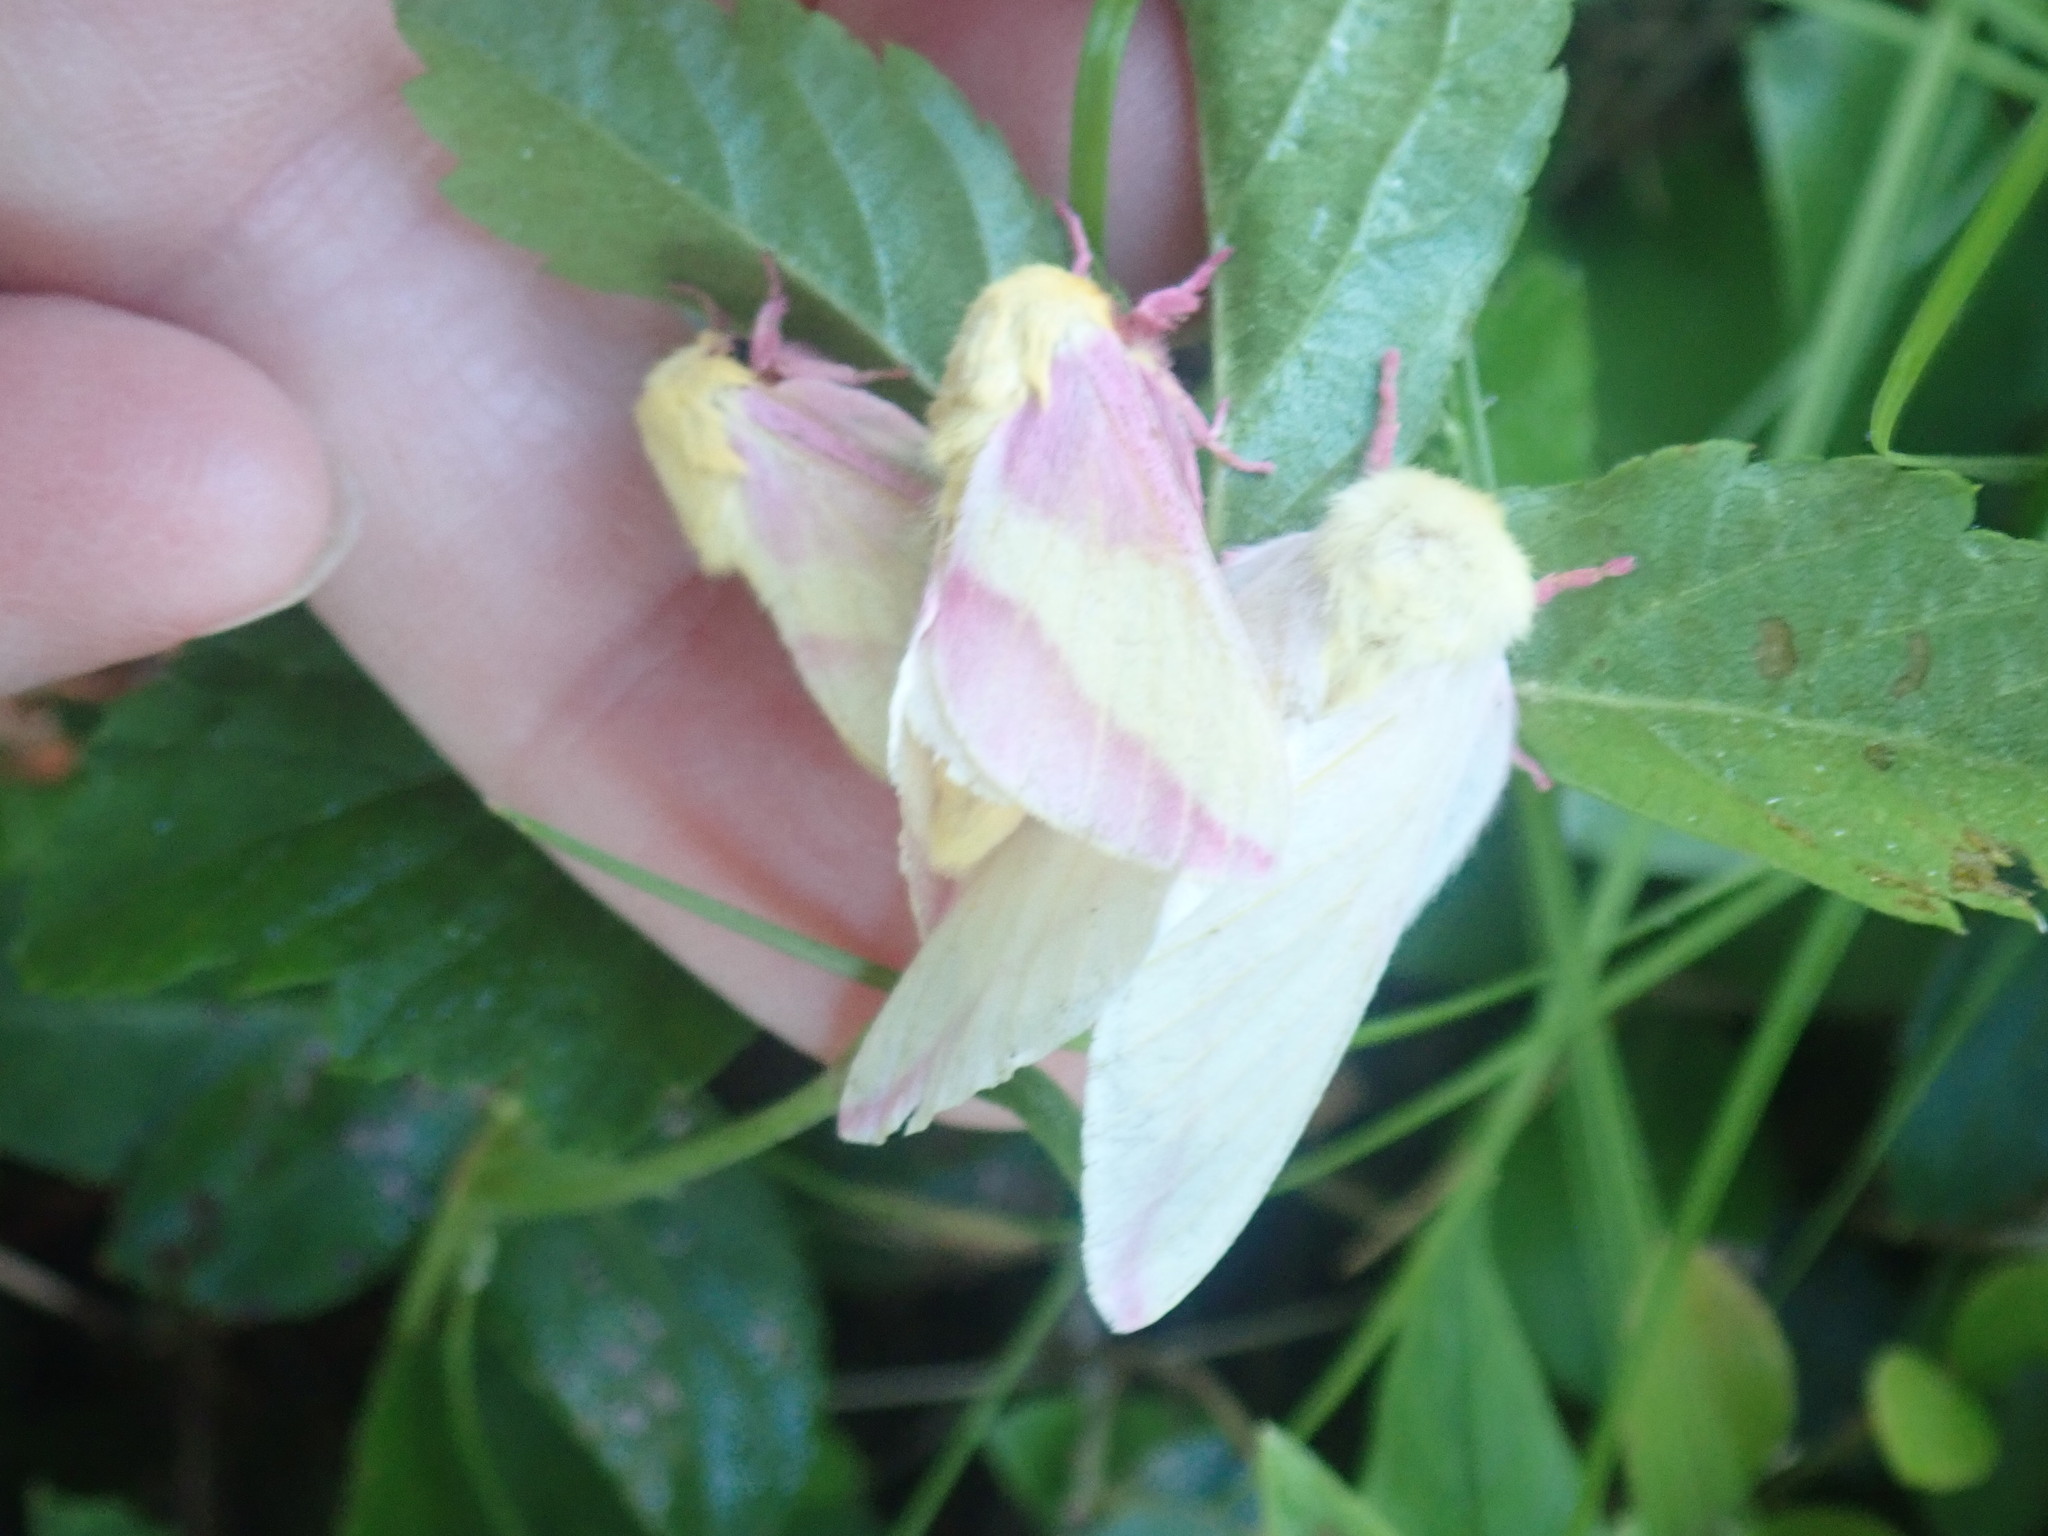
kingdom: Animalia
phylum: Arthropoda
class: Insecta
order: Lepidoptera
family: Saturniidae
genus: Dryocampa
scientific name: Dryocampa rubicunda
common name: Rosy maple moth
